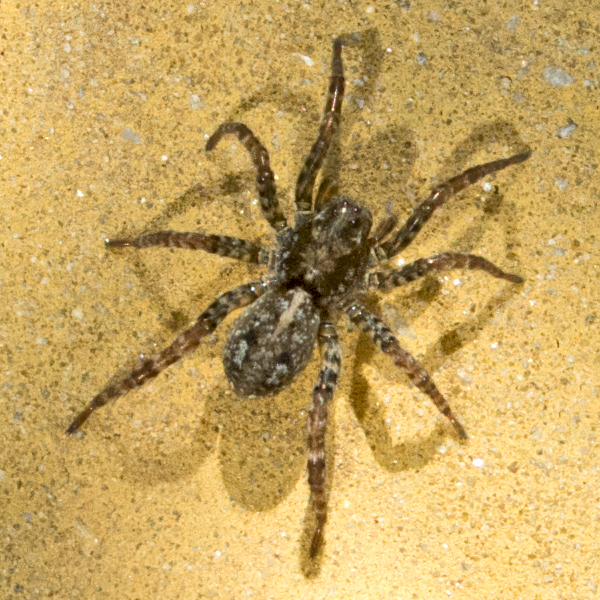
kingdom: Animalia
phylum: Arthropoda
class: Arachnida
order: Araneae
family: Lycosidae
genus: Arctosa
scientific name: Arctosa leopardus
